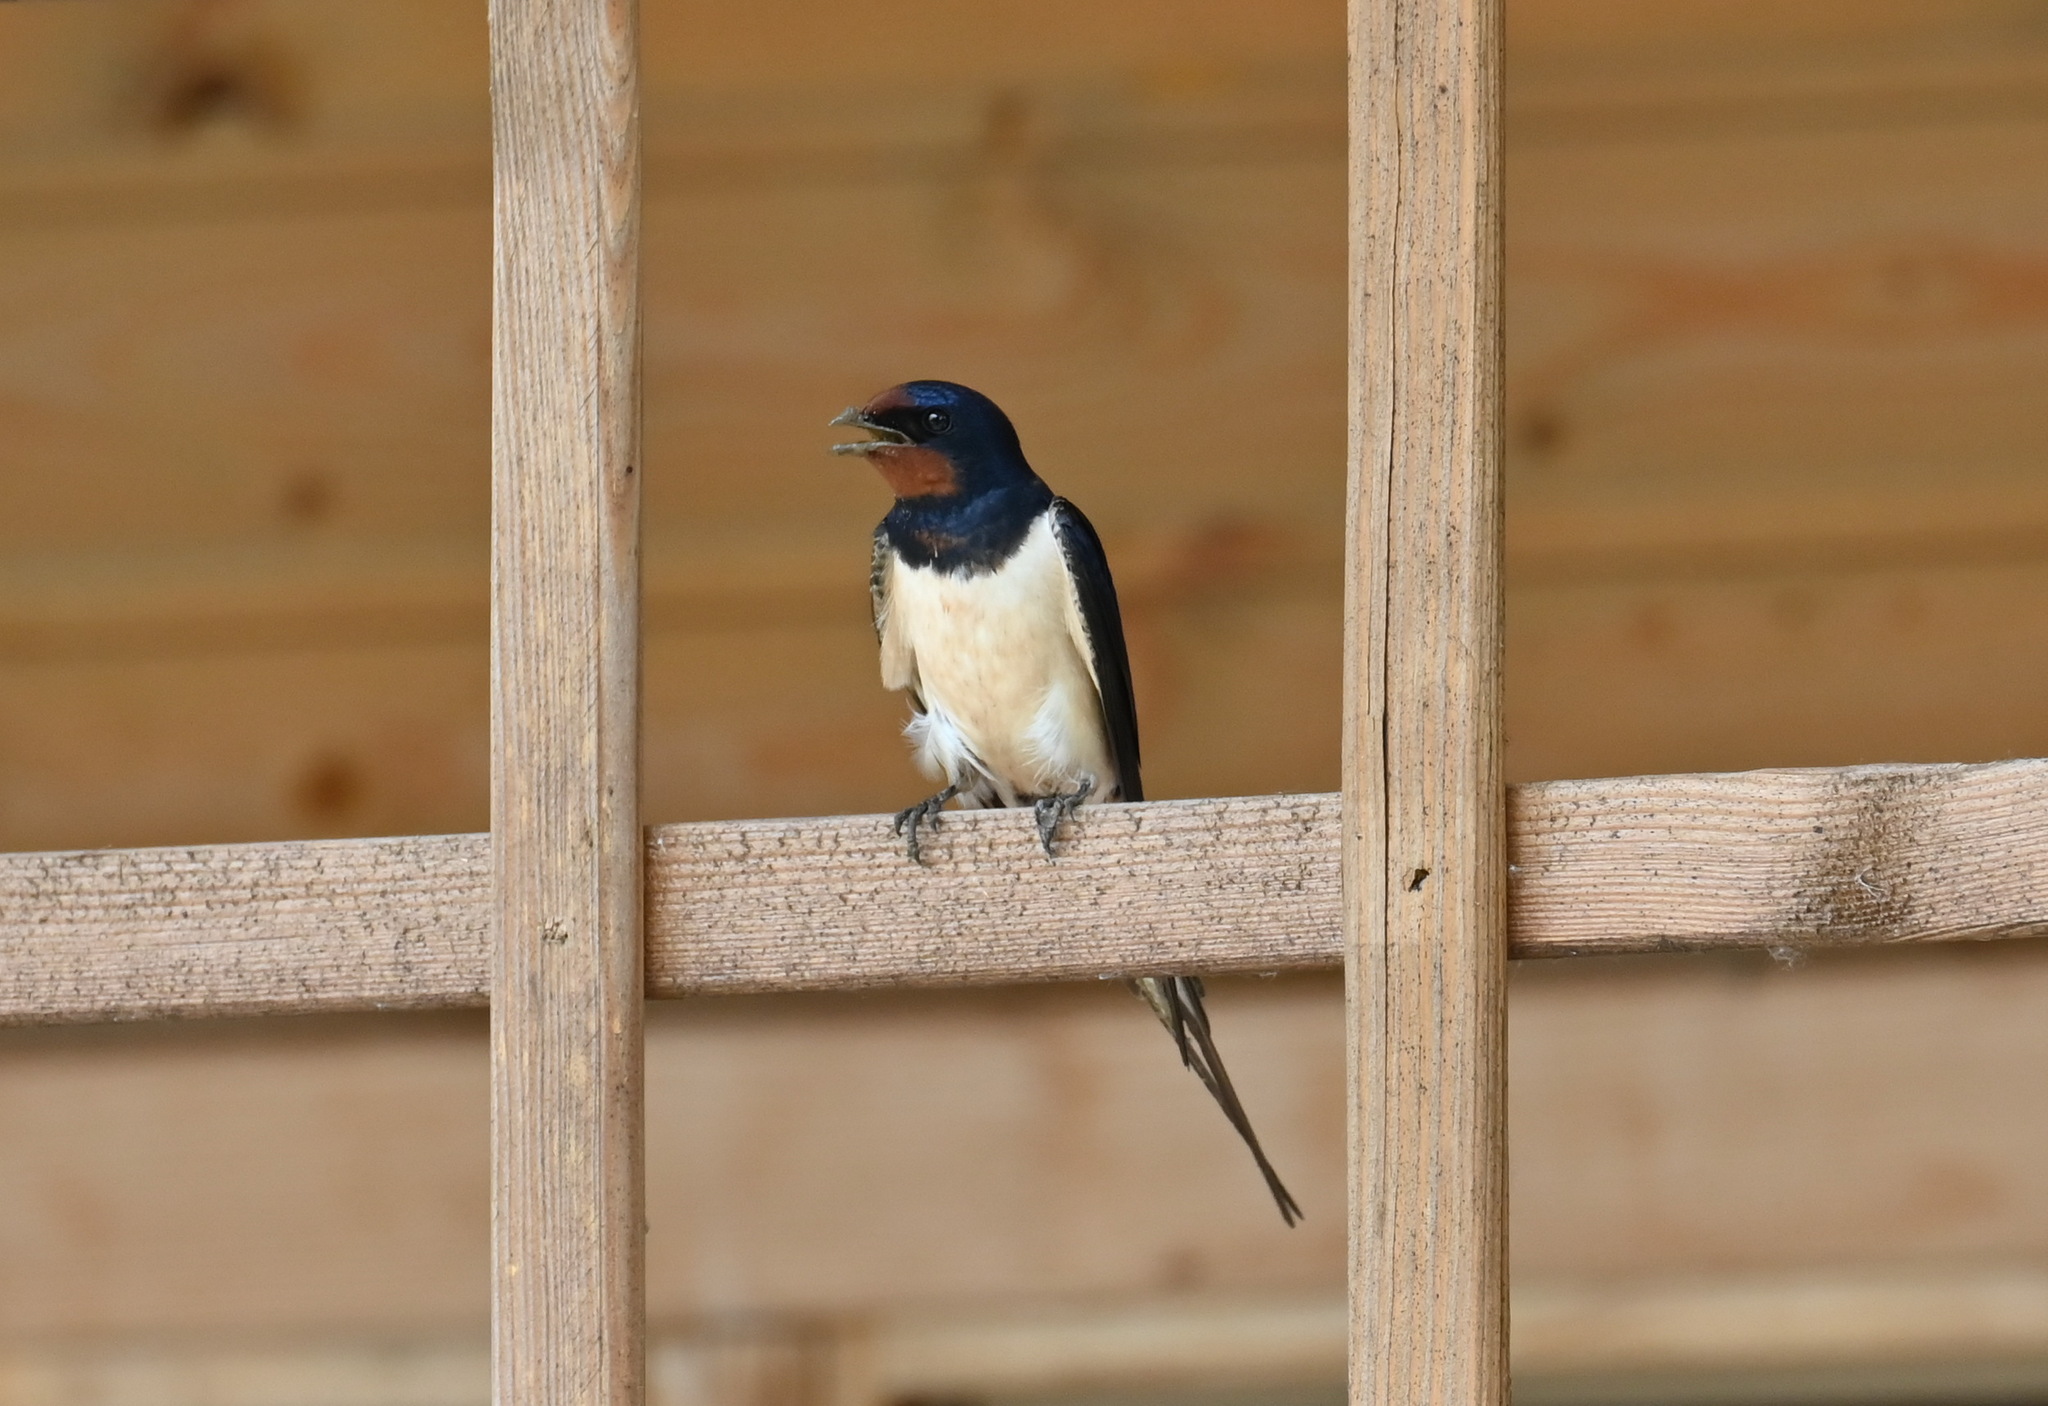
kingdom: Animalia
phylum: Chordata
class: Aves
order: Passeriformes
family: Hirundinidae
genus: Hirundo
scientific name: Hirundo rustica
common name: Barn swallow
